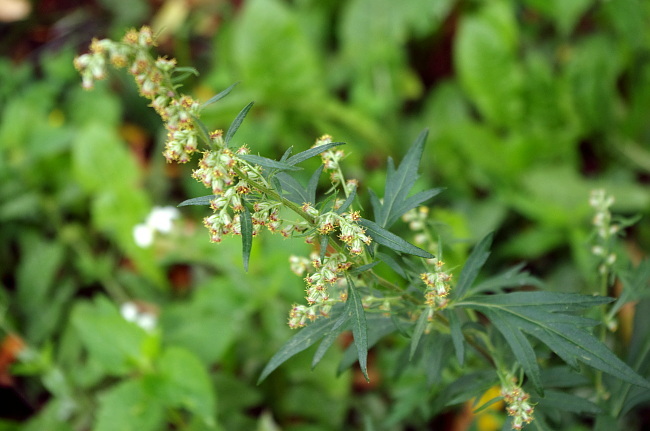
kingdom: Plantae
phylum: Tracheophyta
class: Magnoliopsida
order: Asterales
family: Asteraceae
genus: Artemisia
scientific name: Artemisia vulgaris
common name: Mugwort
